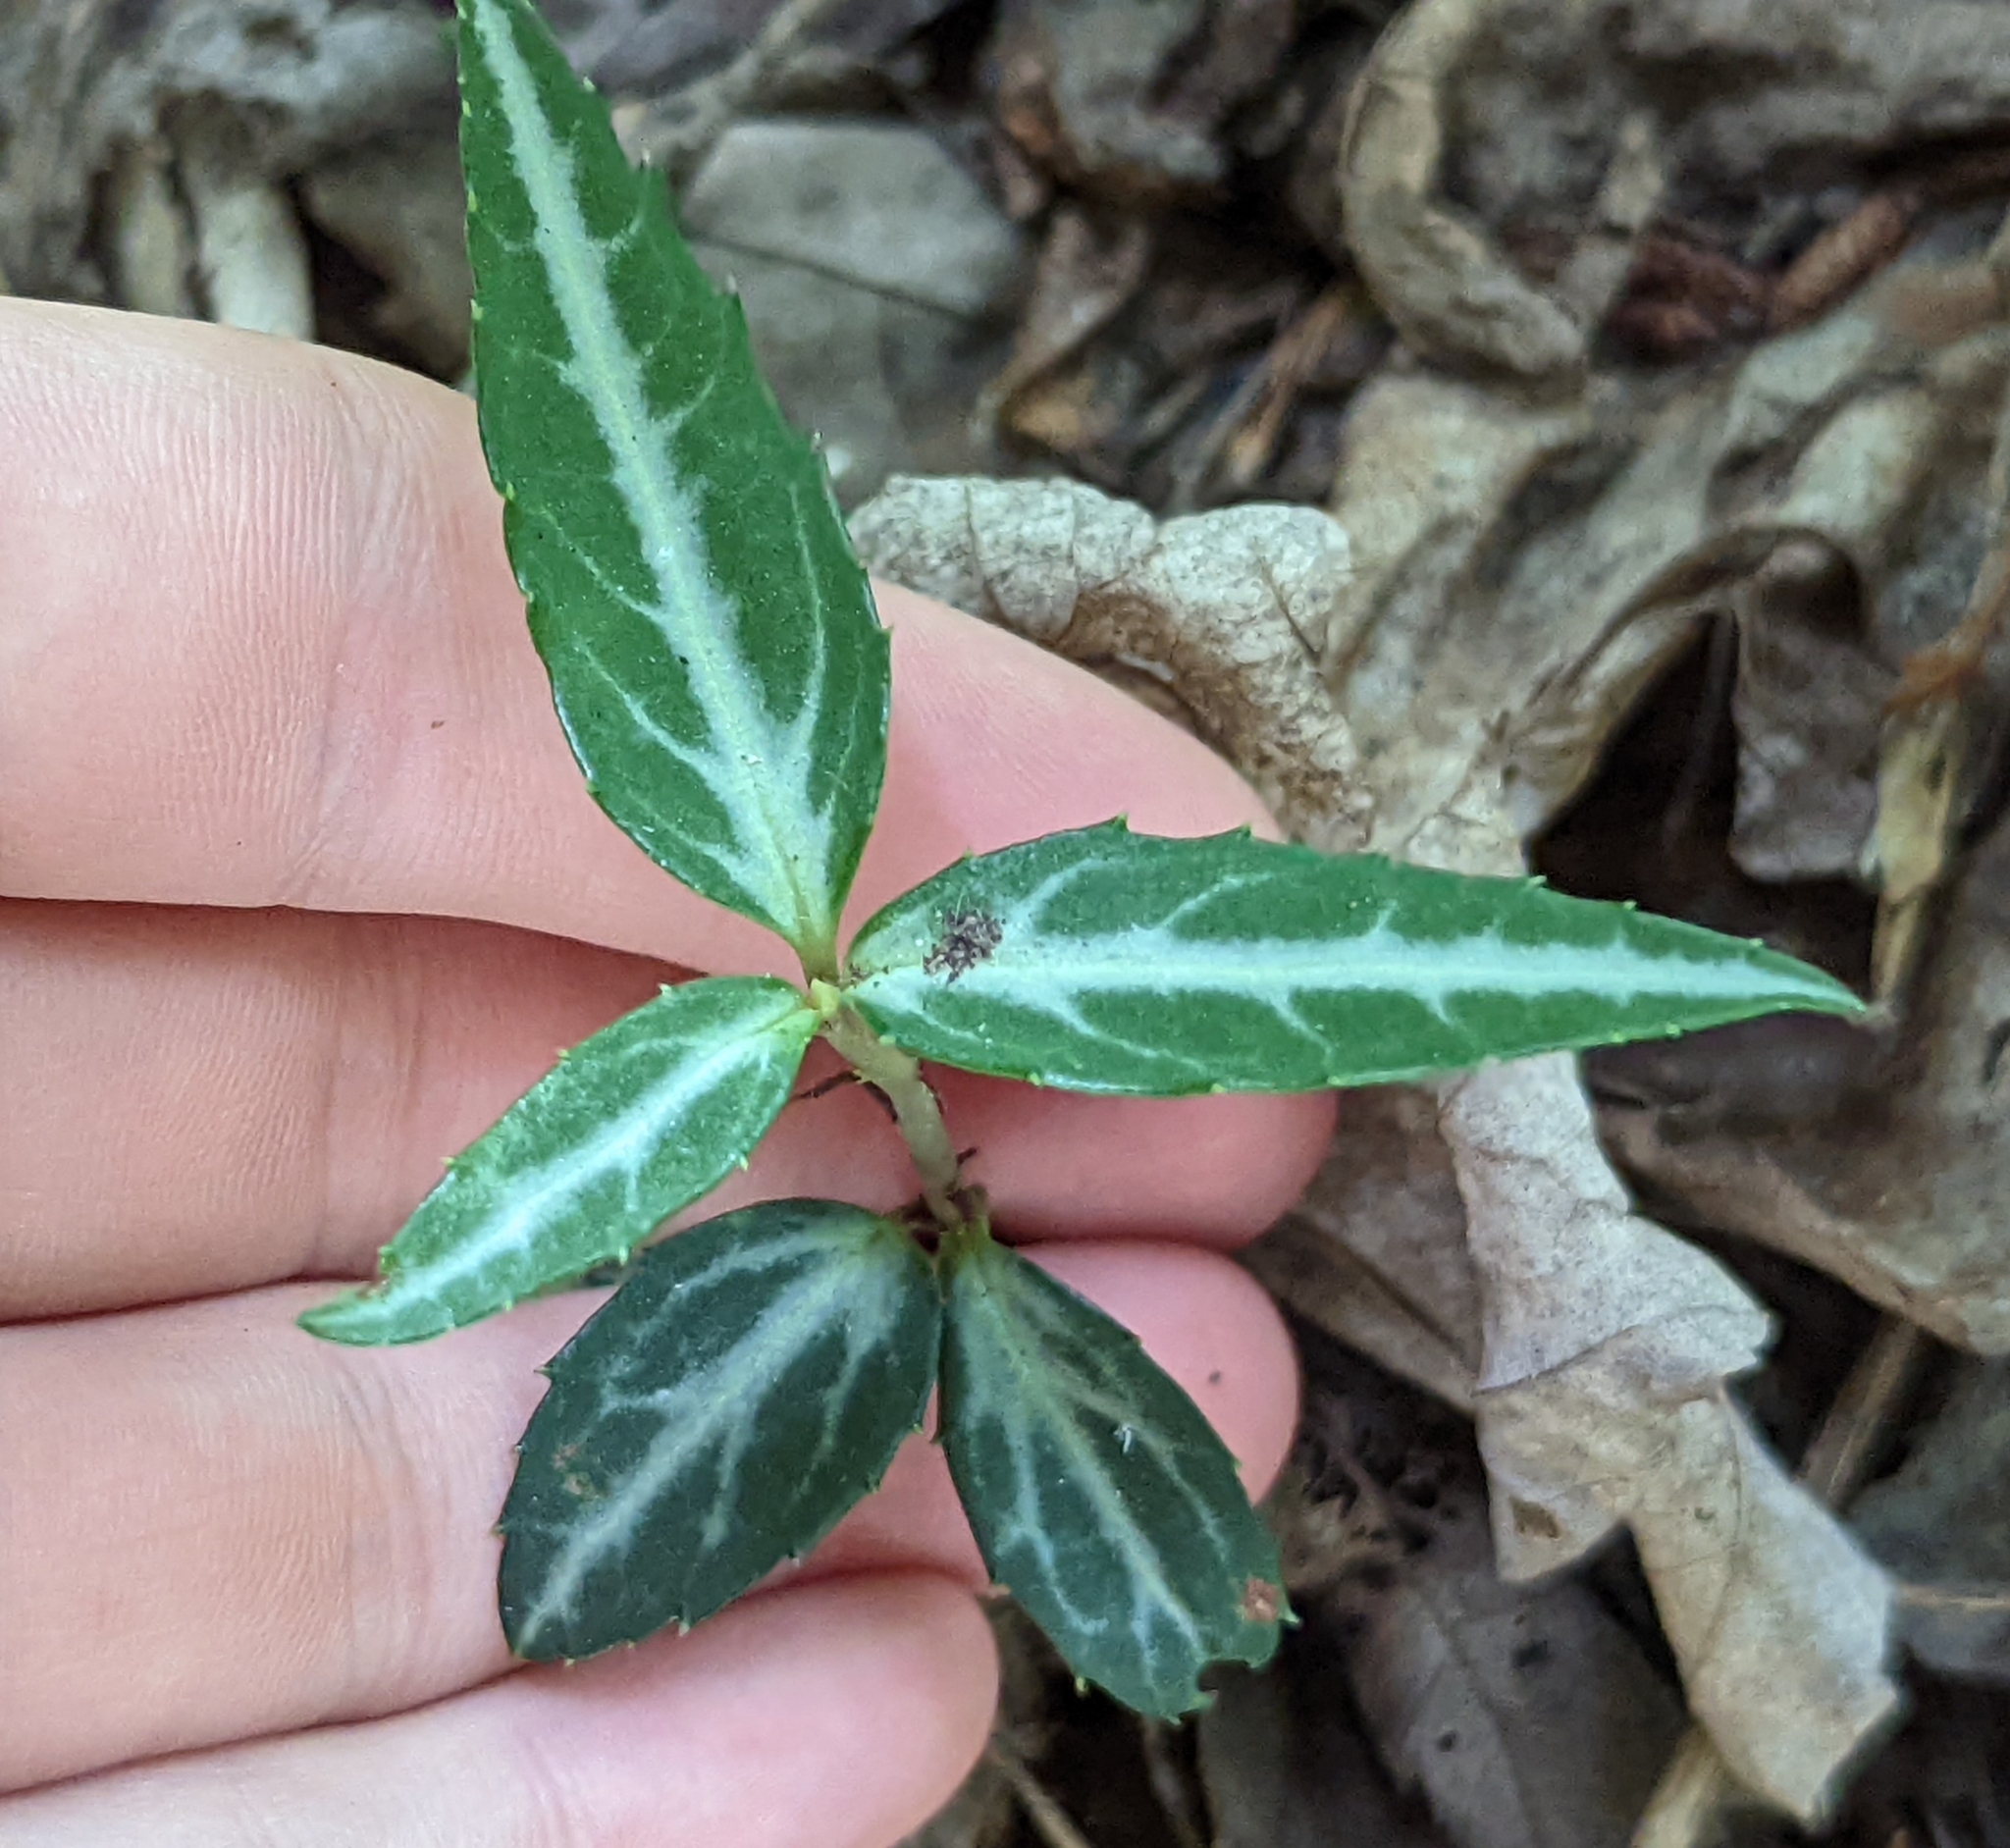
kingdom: Plantae
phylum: Tracheophyta
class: Magnoliopsida
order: Ericales
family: Ericaceae
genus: Chimaphila
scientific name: Chimaphila maculata
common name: Spotted pipsissewa
